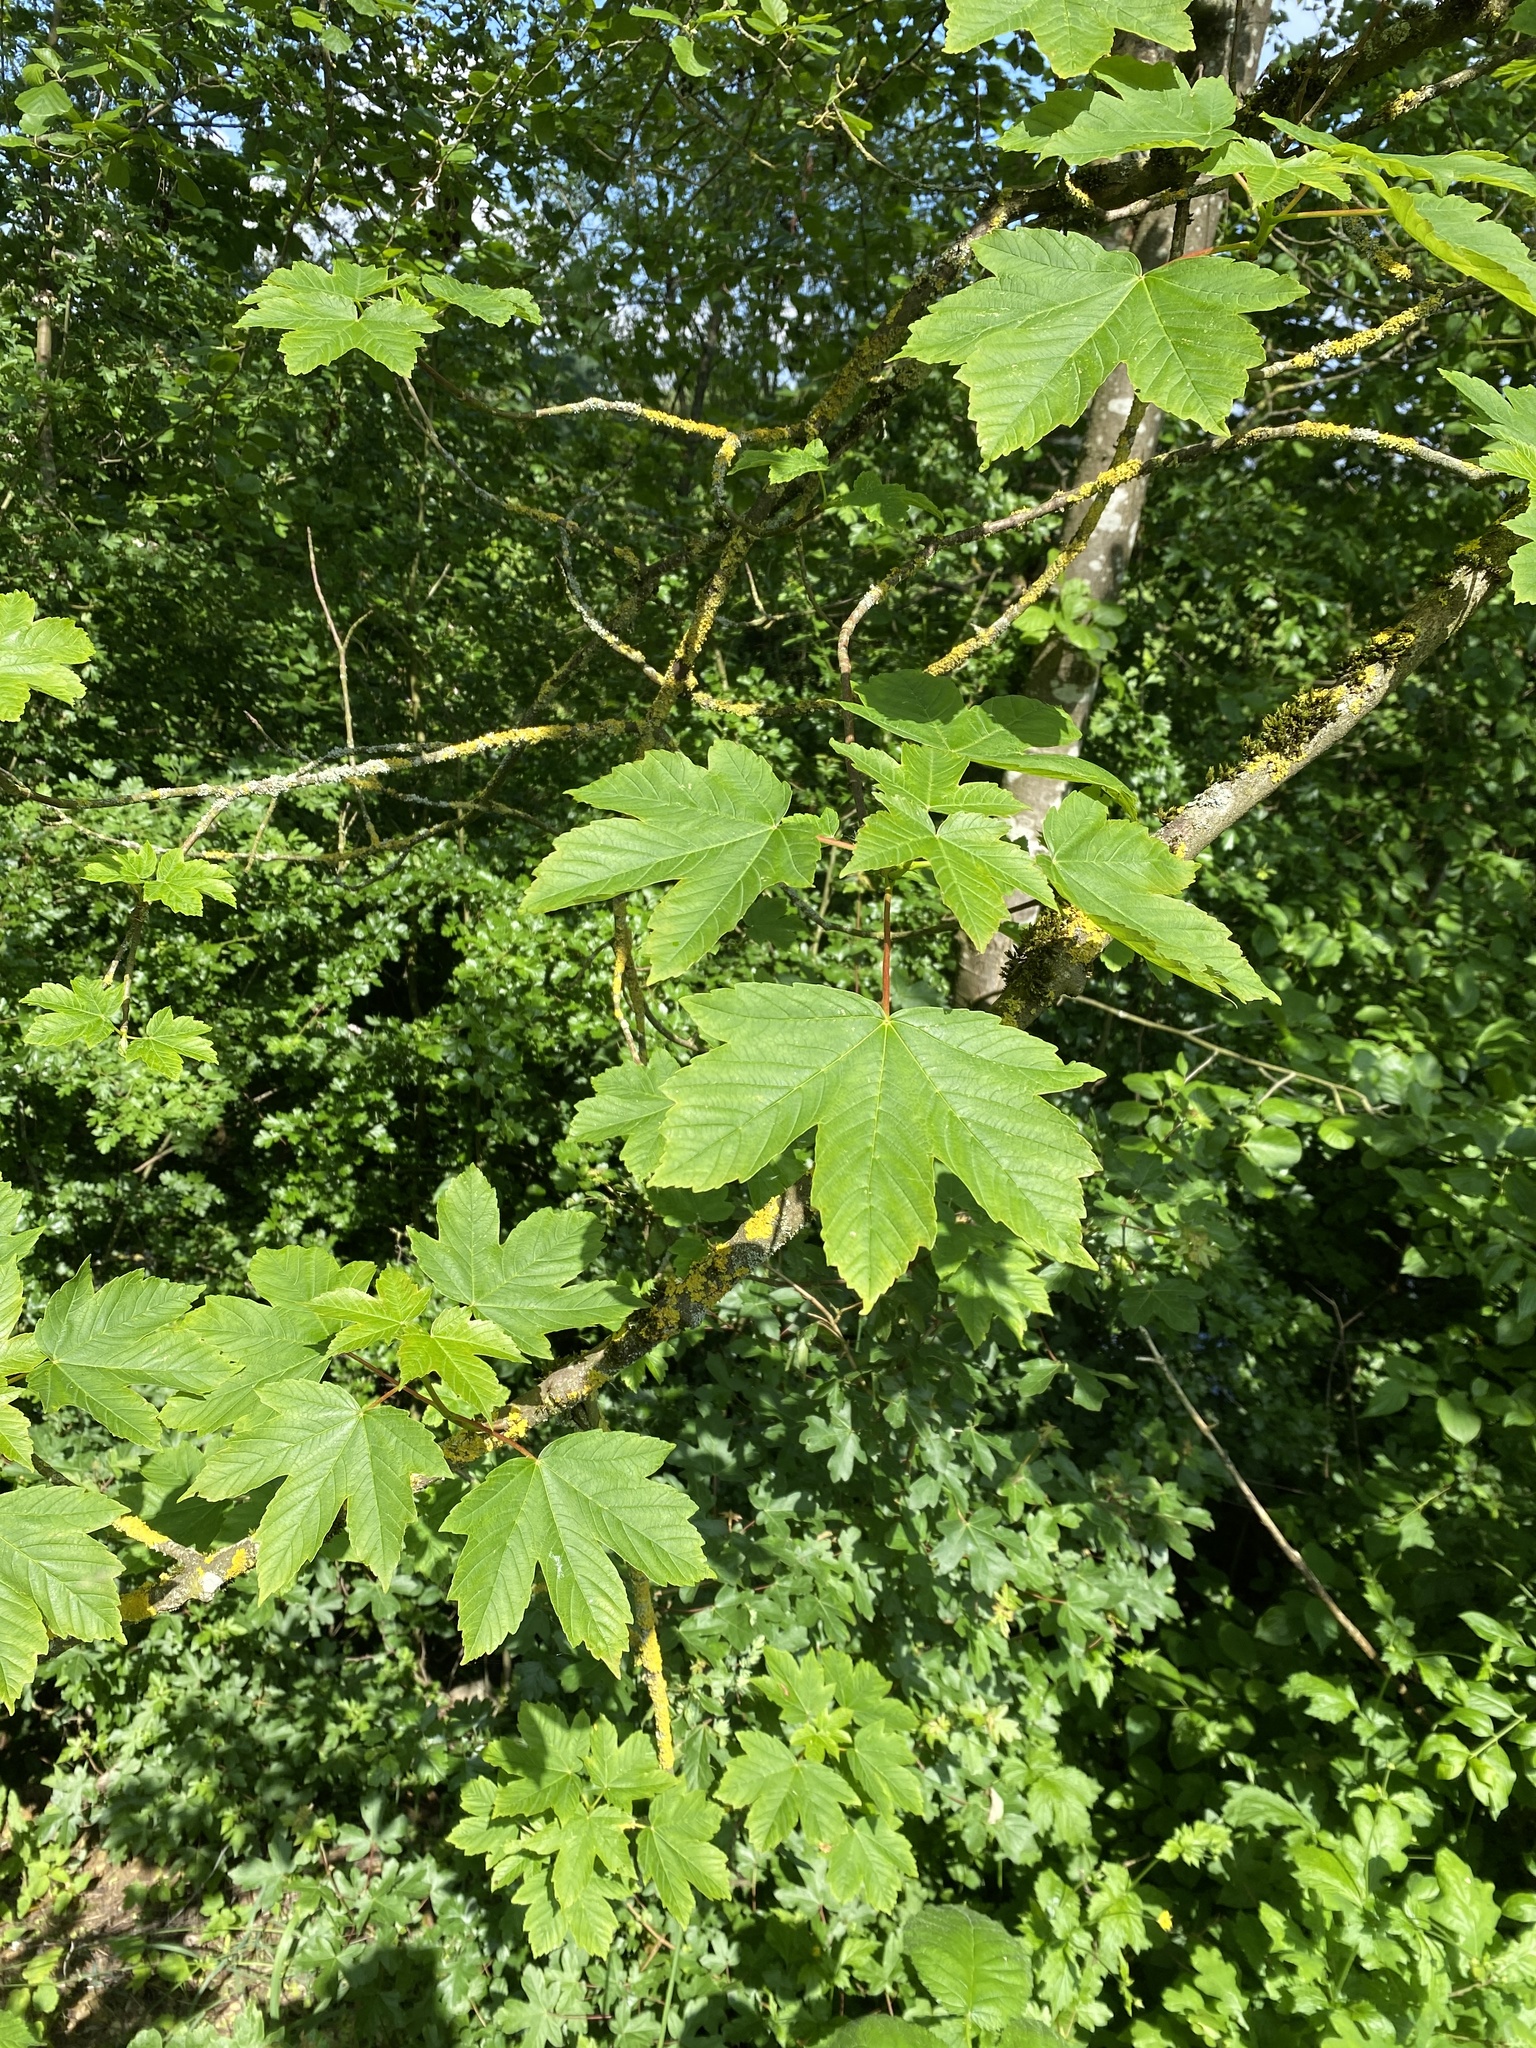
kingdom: Plantae
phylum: Tracheophyta
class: Magnoliopsida
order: Sapindales
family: Sapindaceae
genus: Acer
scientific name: Acer pseudoplatanus
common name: Sycamore
